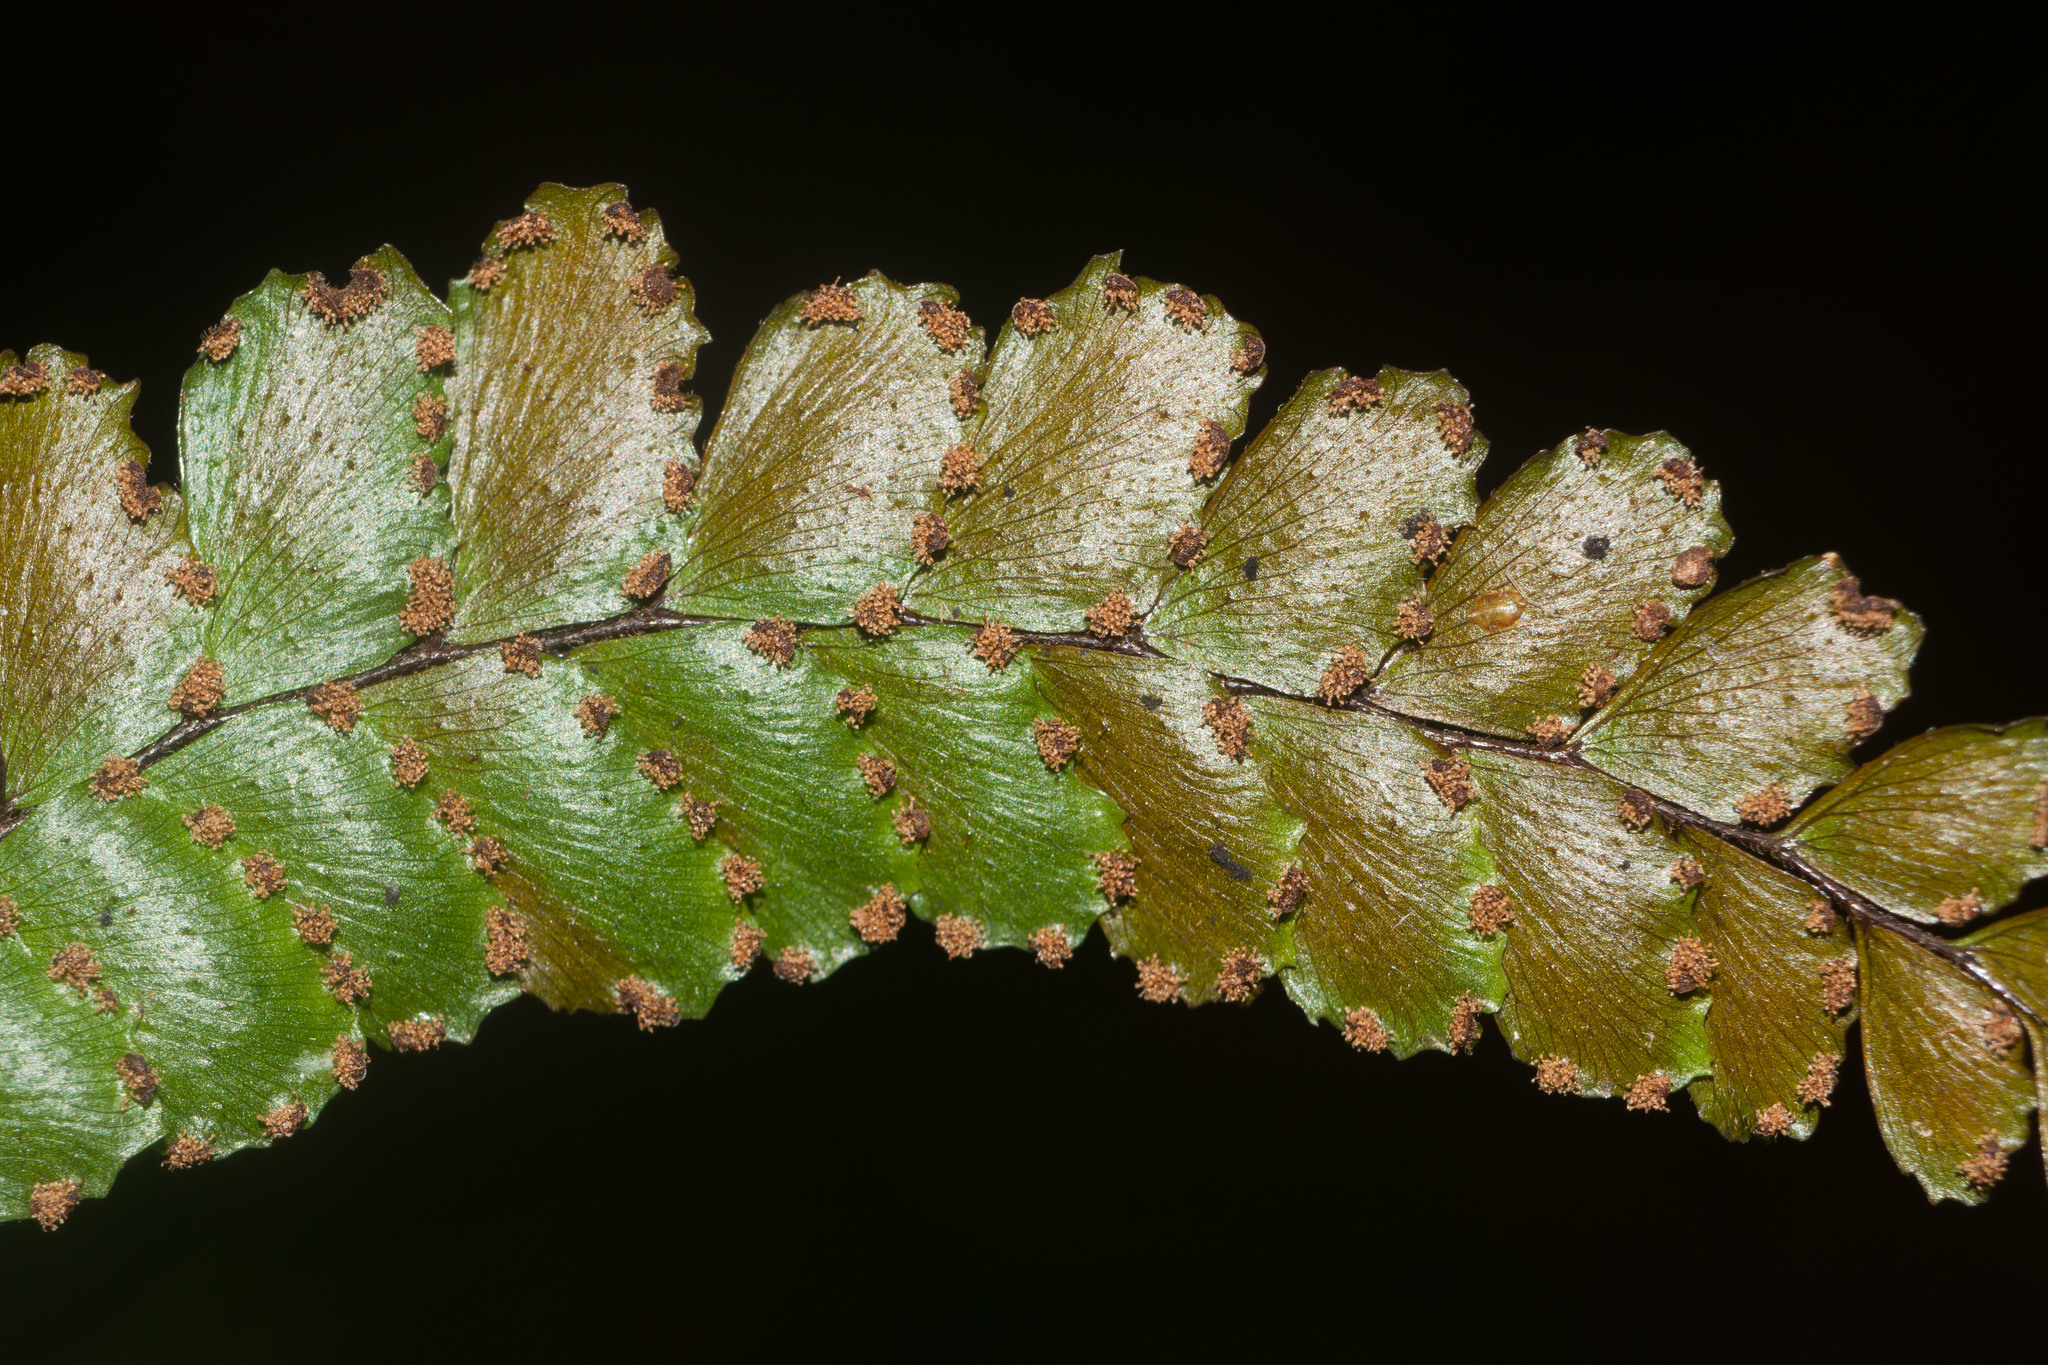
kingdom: Plantae
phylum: Tracheophyta
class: Polypodiopsida
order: Polypodiales
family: Pteridaceae
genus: Adiantum
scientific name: Adiantum hispidulum
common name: Rough maidenhair
